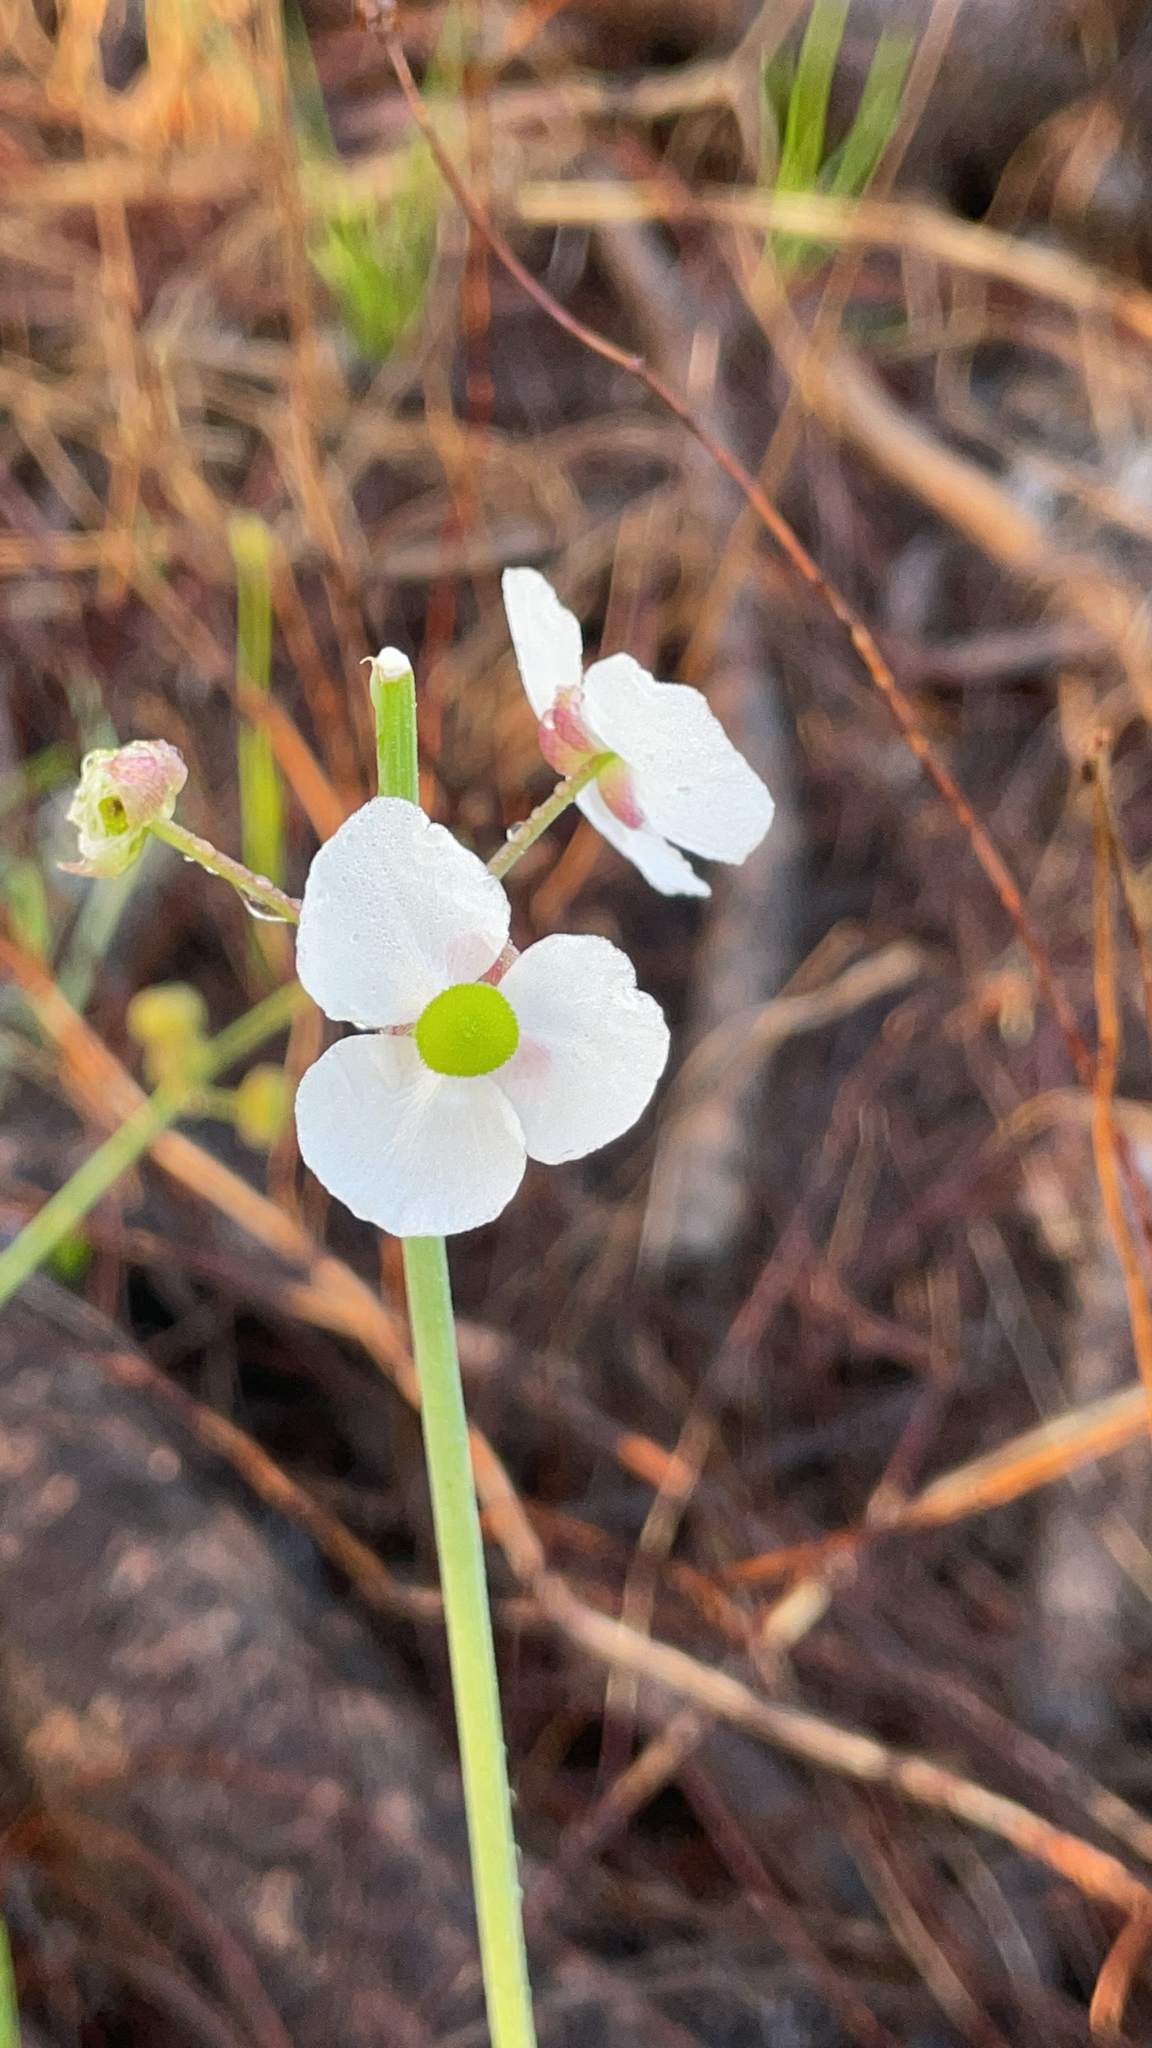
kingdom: Plantae
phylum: Tracheophyta
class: Liliopsida
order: Alismatales
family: Alismataceae
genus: Sagittaria
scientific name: Sagittaria graminea
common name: Grass-leaved arrowhead
